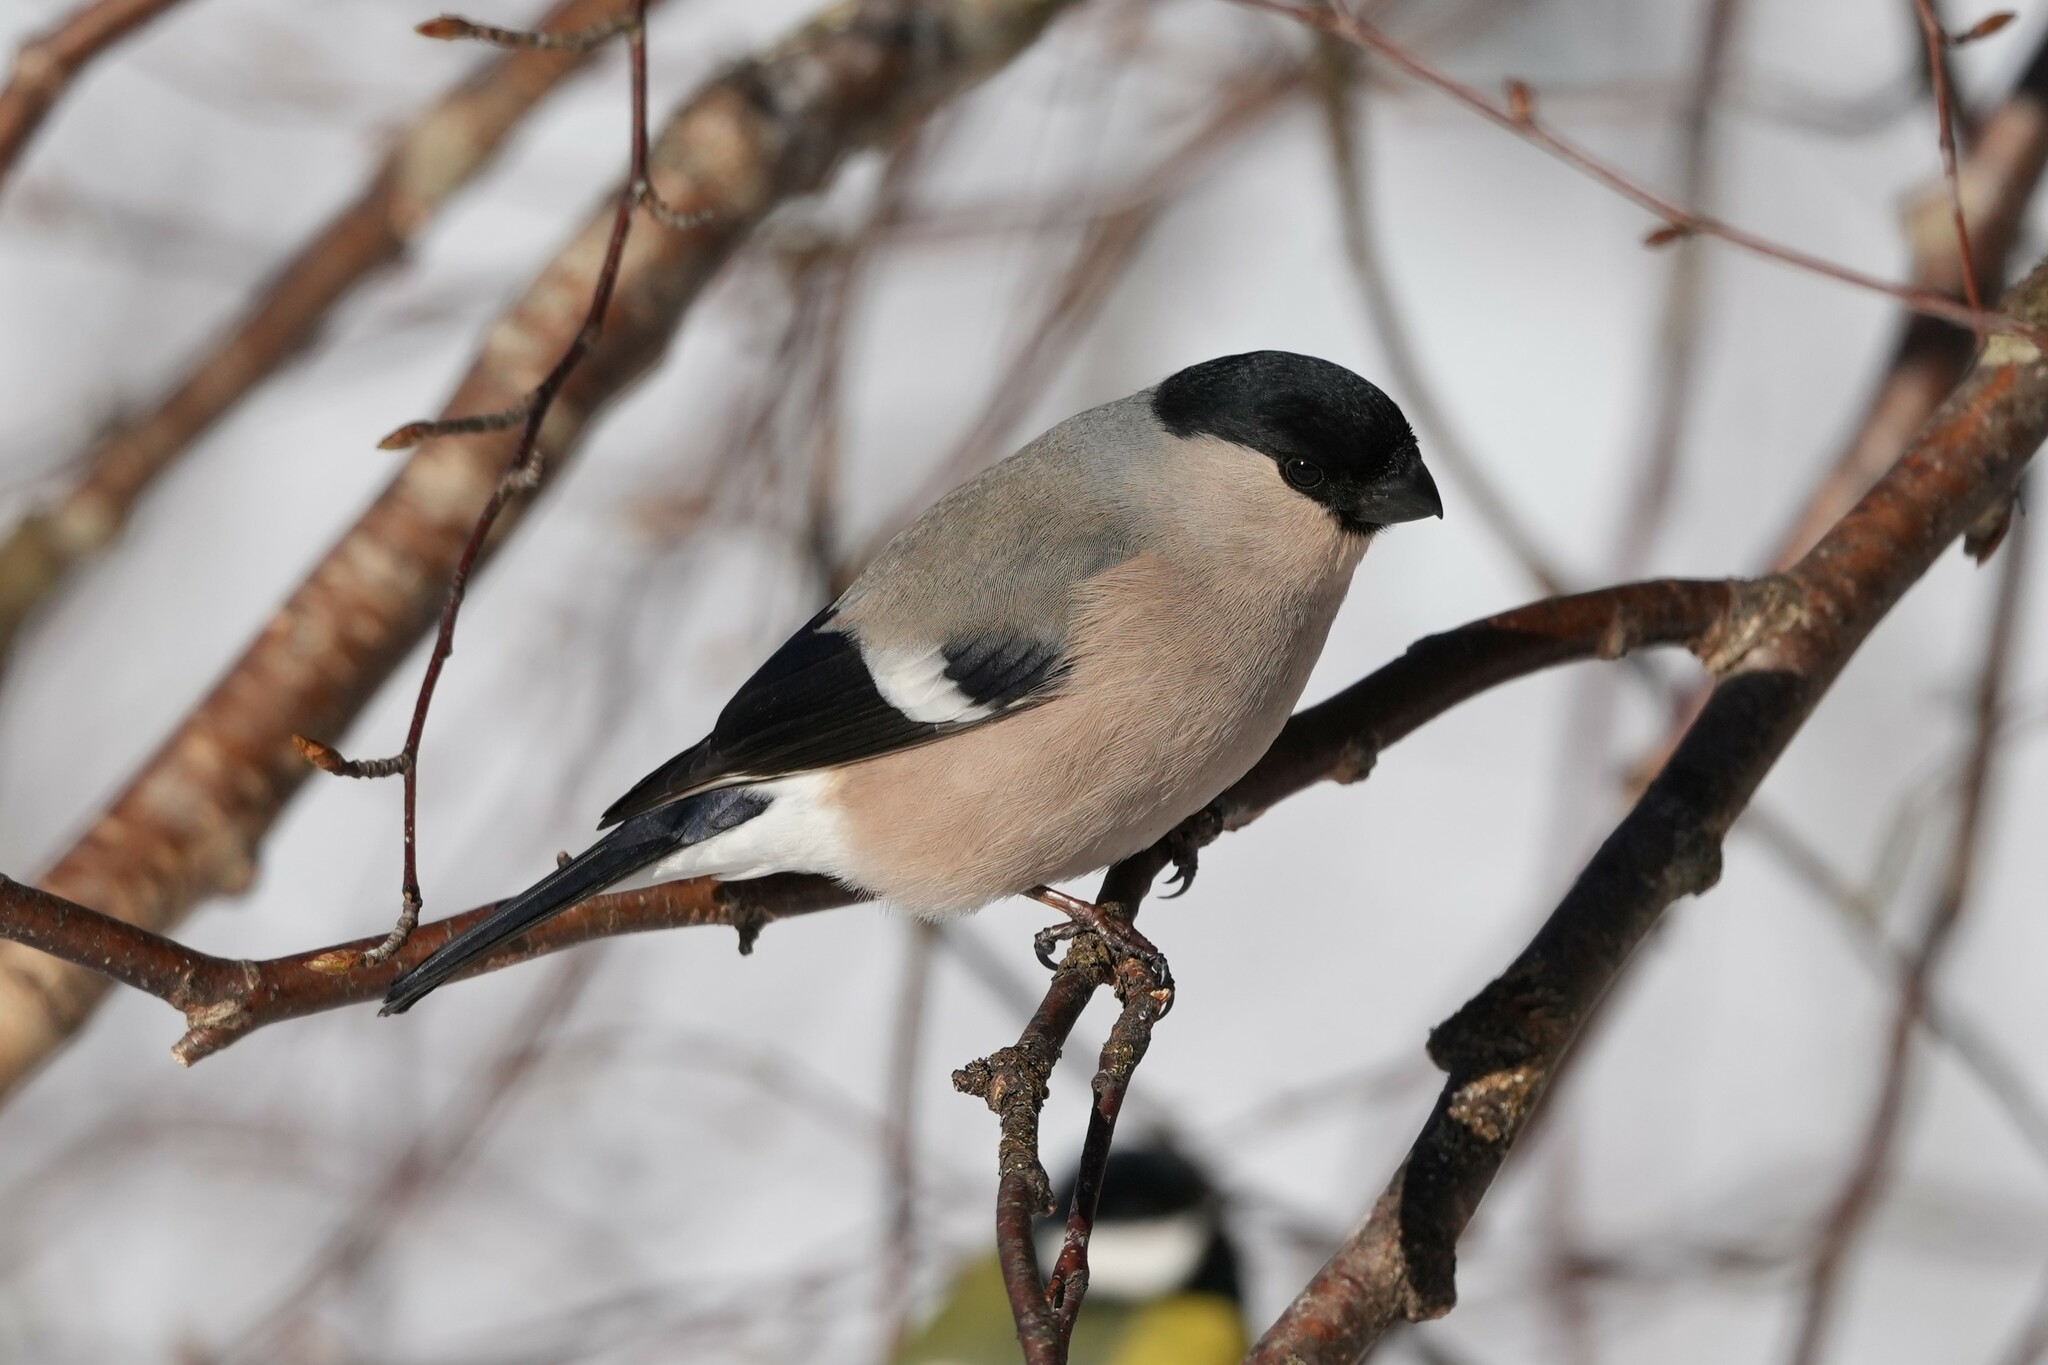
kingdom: Animalia
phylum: Chordata
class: Aves
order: Passeriformes
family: Fringillidae
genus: Pyrrhula
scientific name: Pyrrhula pyrrhula
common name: Eurasian bullfinch
